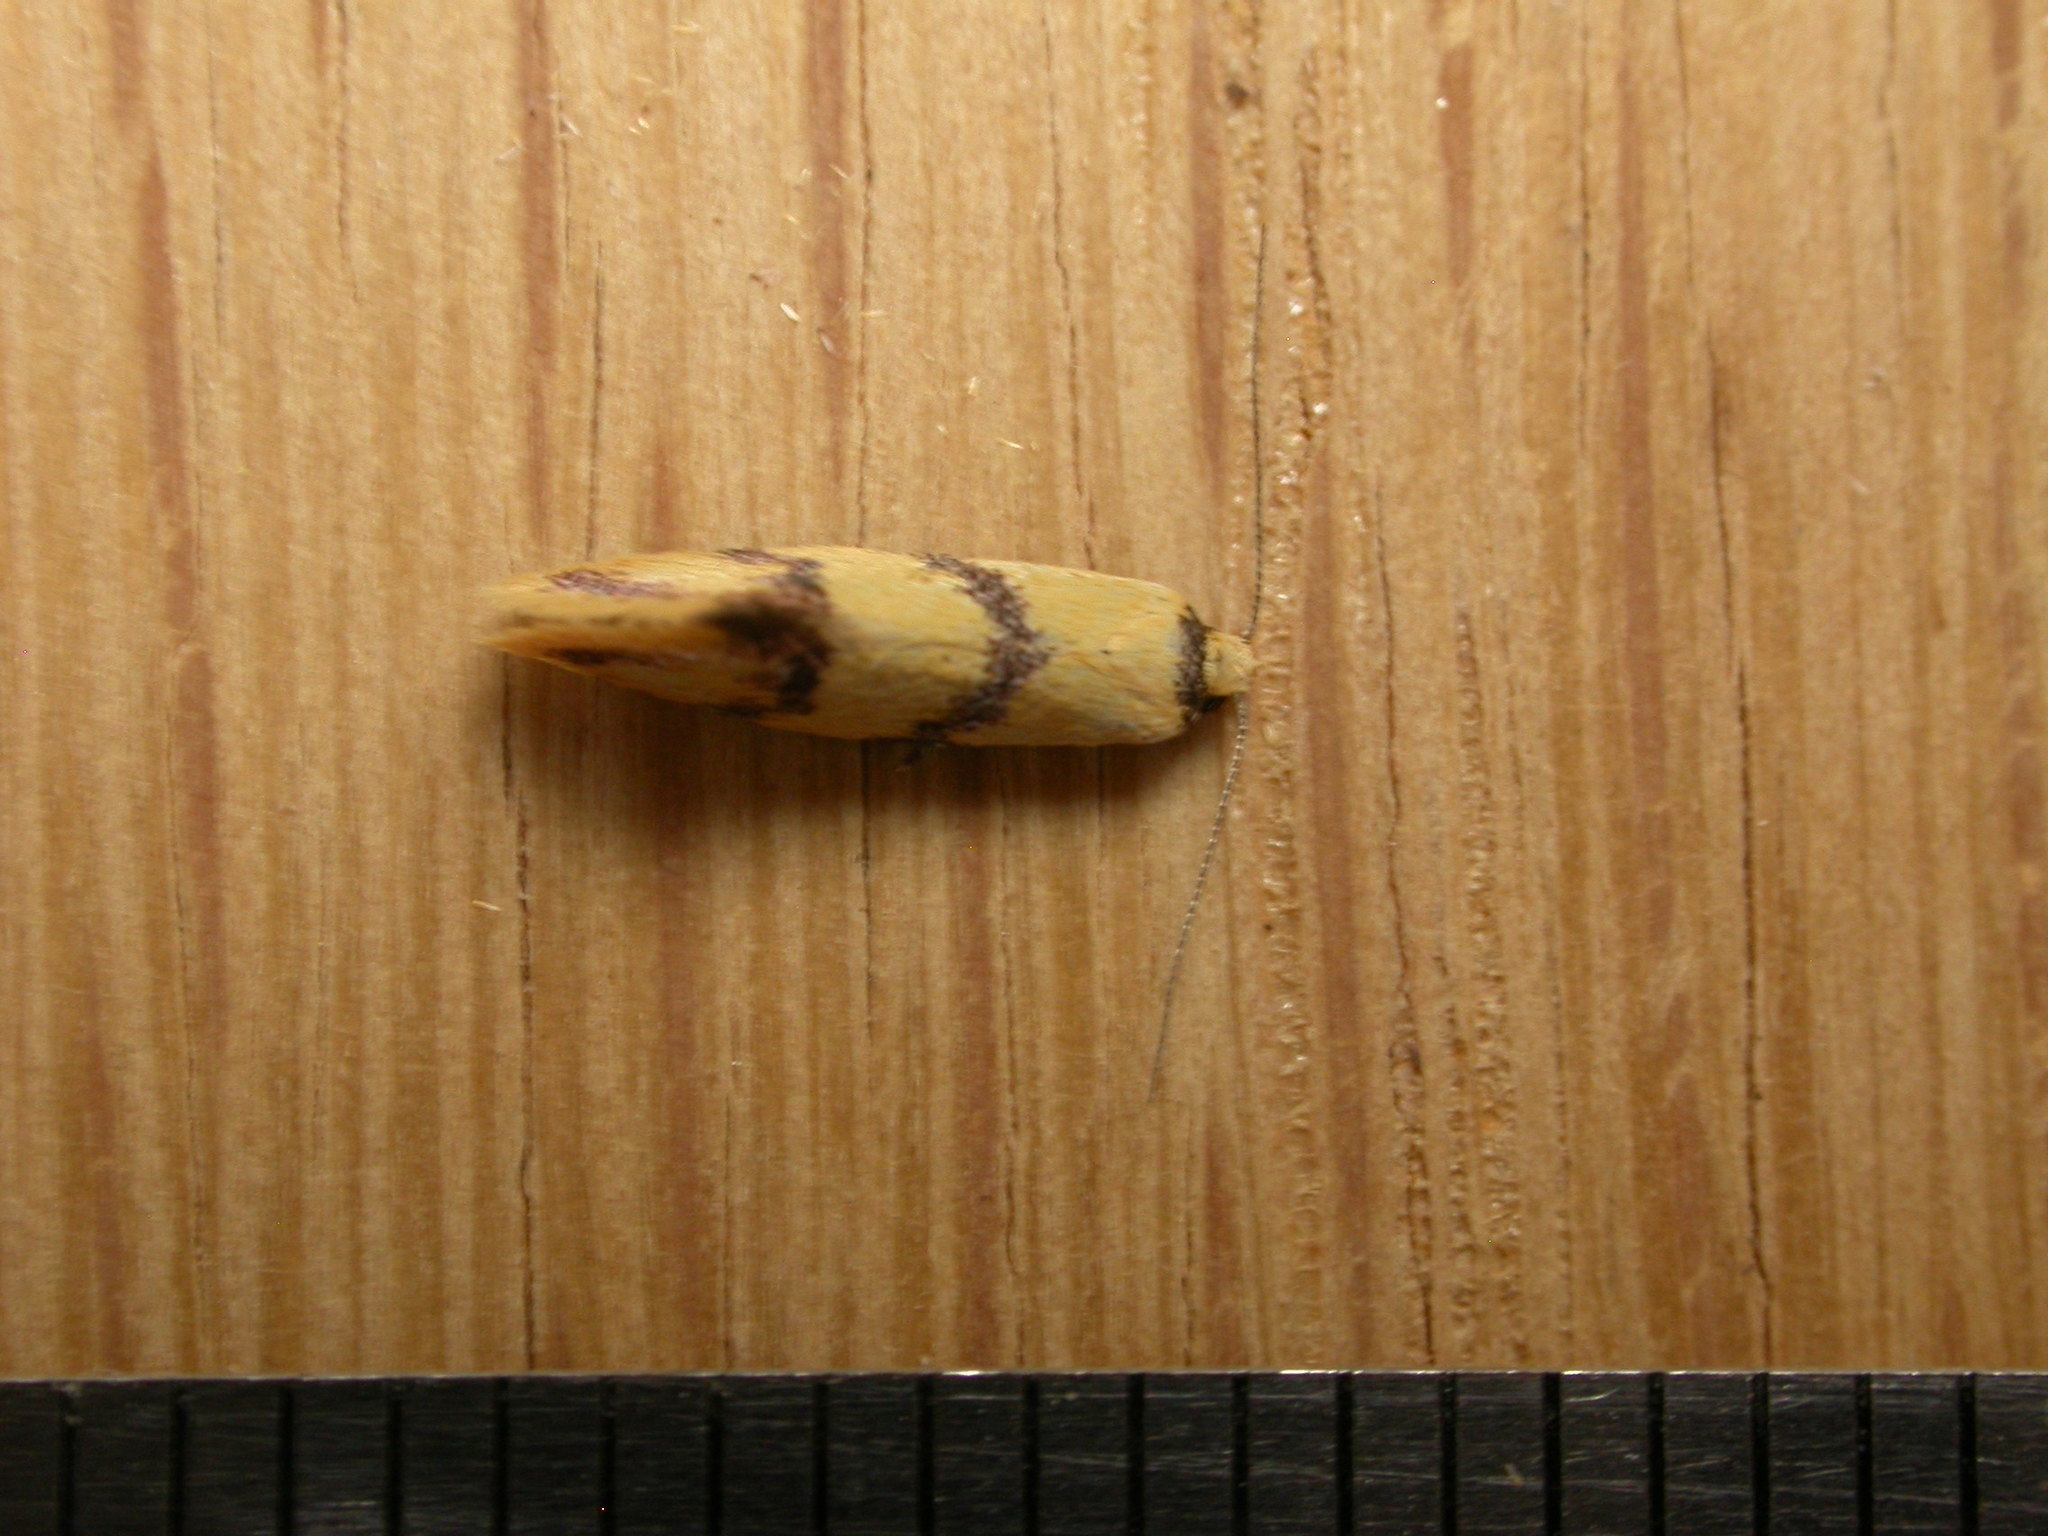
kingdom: Animalia
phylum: Arthropoda
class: Insecta
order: Lepidoptera
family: Oecophoridae
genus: Psaroxantha
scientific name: Psaroxantha basilica
